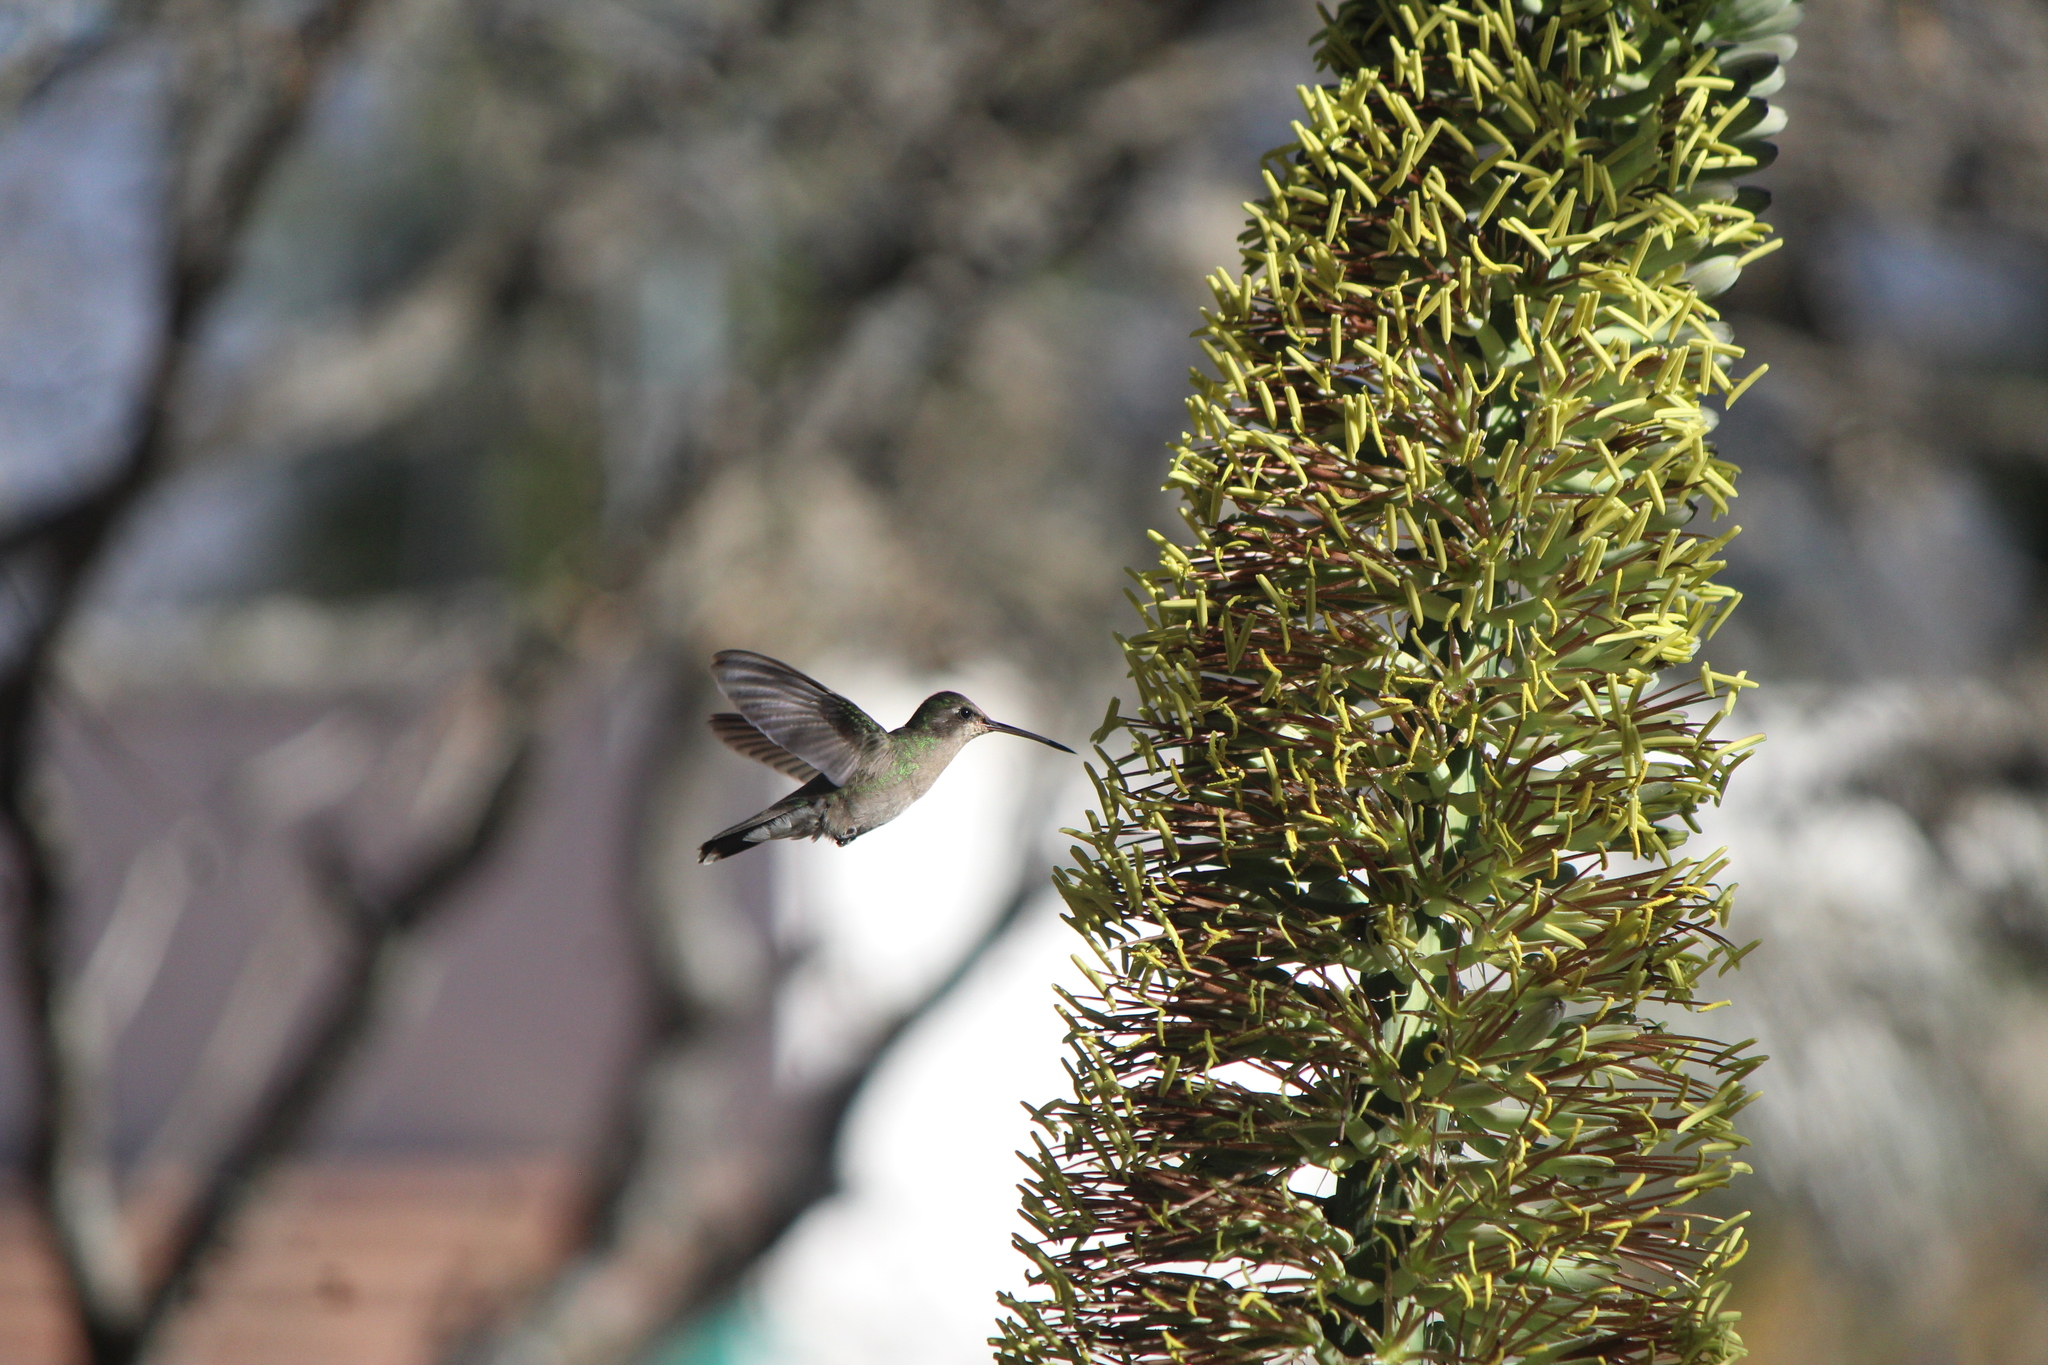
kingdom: Animalia
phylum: Chordata
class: Aves
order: Apodiformes
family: Trochilidae
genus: Cynanthus
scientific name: Cynanthus latirostris
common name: Broad-billed hummingbird
